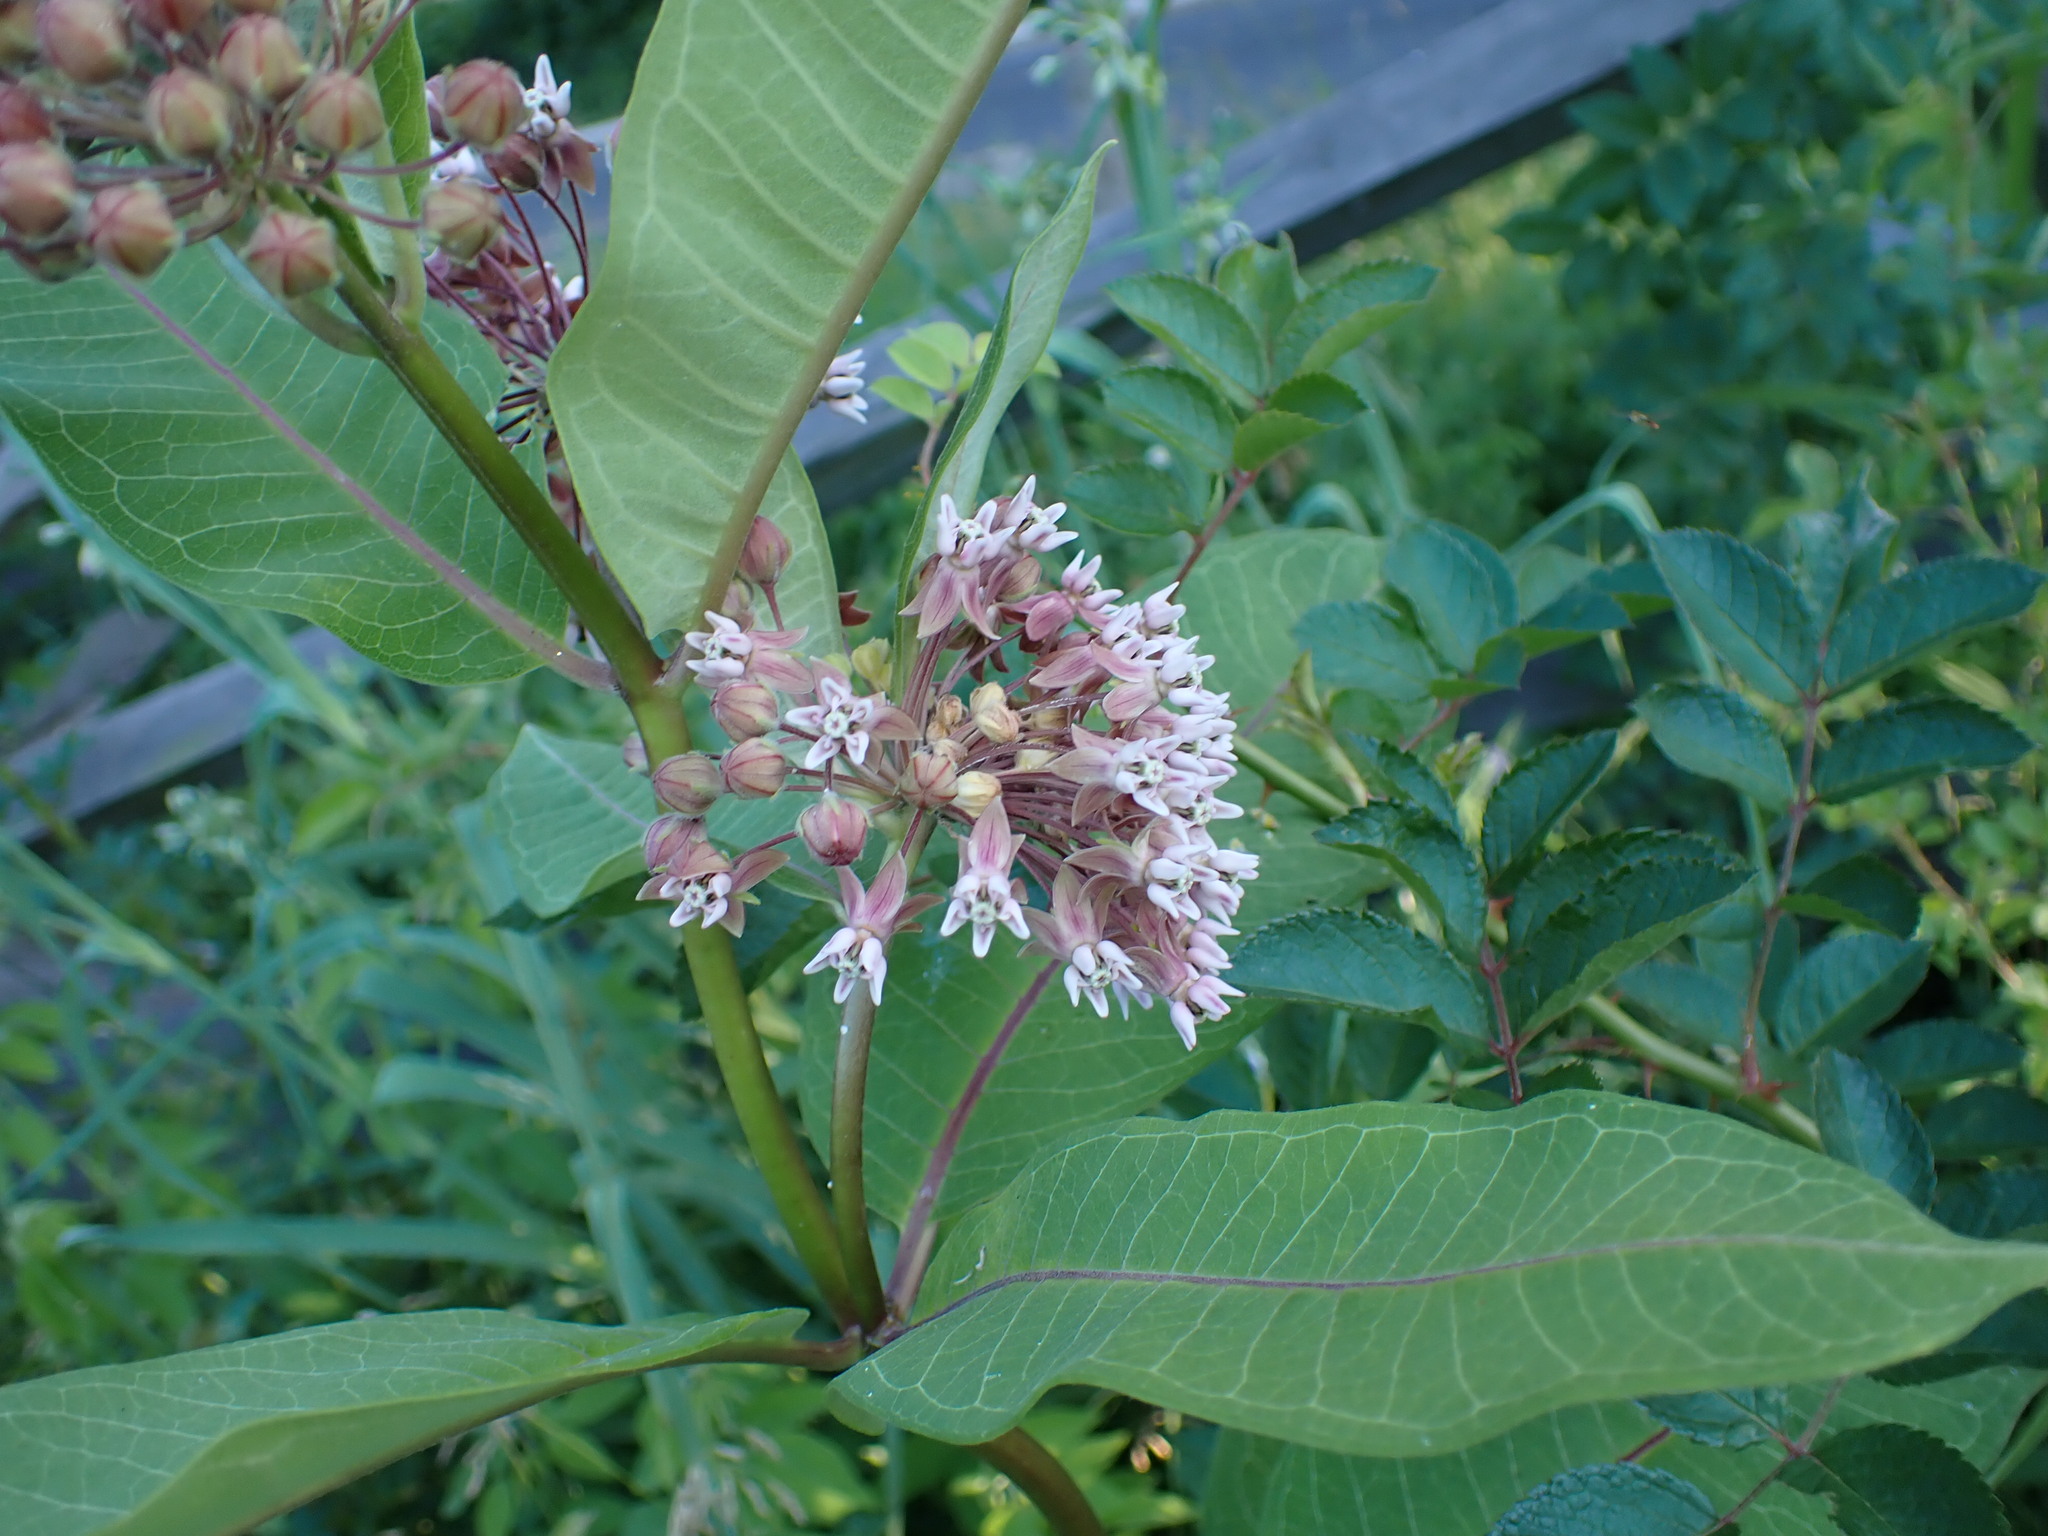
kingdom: Plantae
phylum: Tracheophyta
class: Magnoliopsida
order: Gentianales
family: Apocynaceae
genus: Asclepias
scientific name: Asclepias syriaca
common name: Common milkweed
